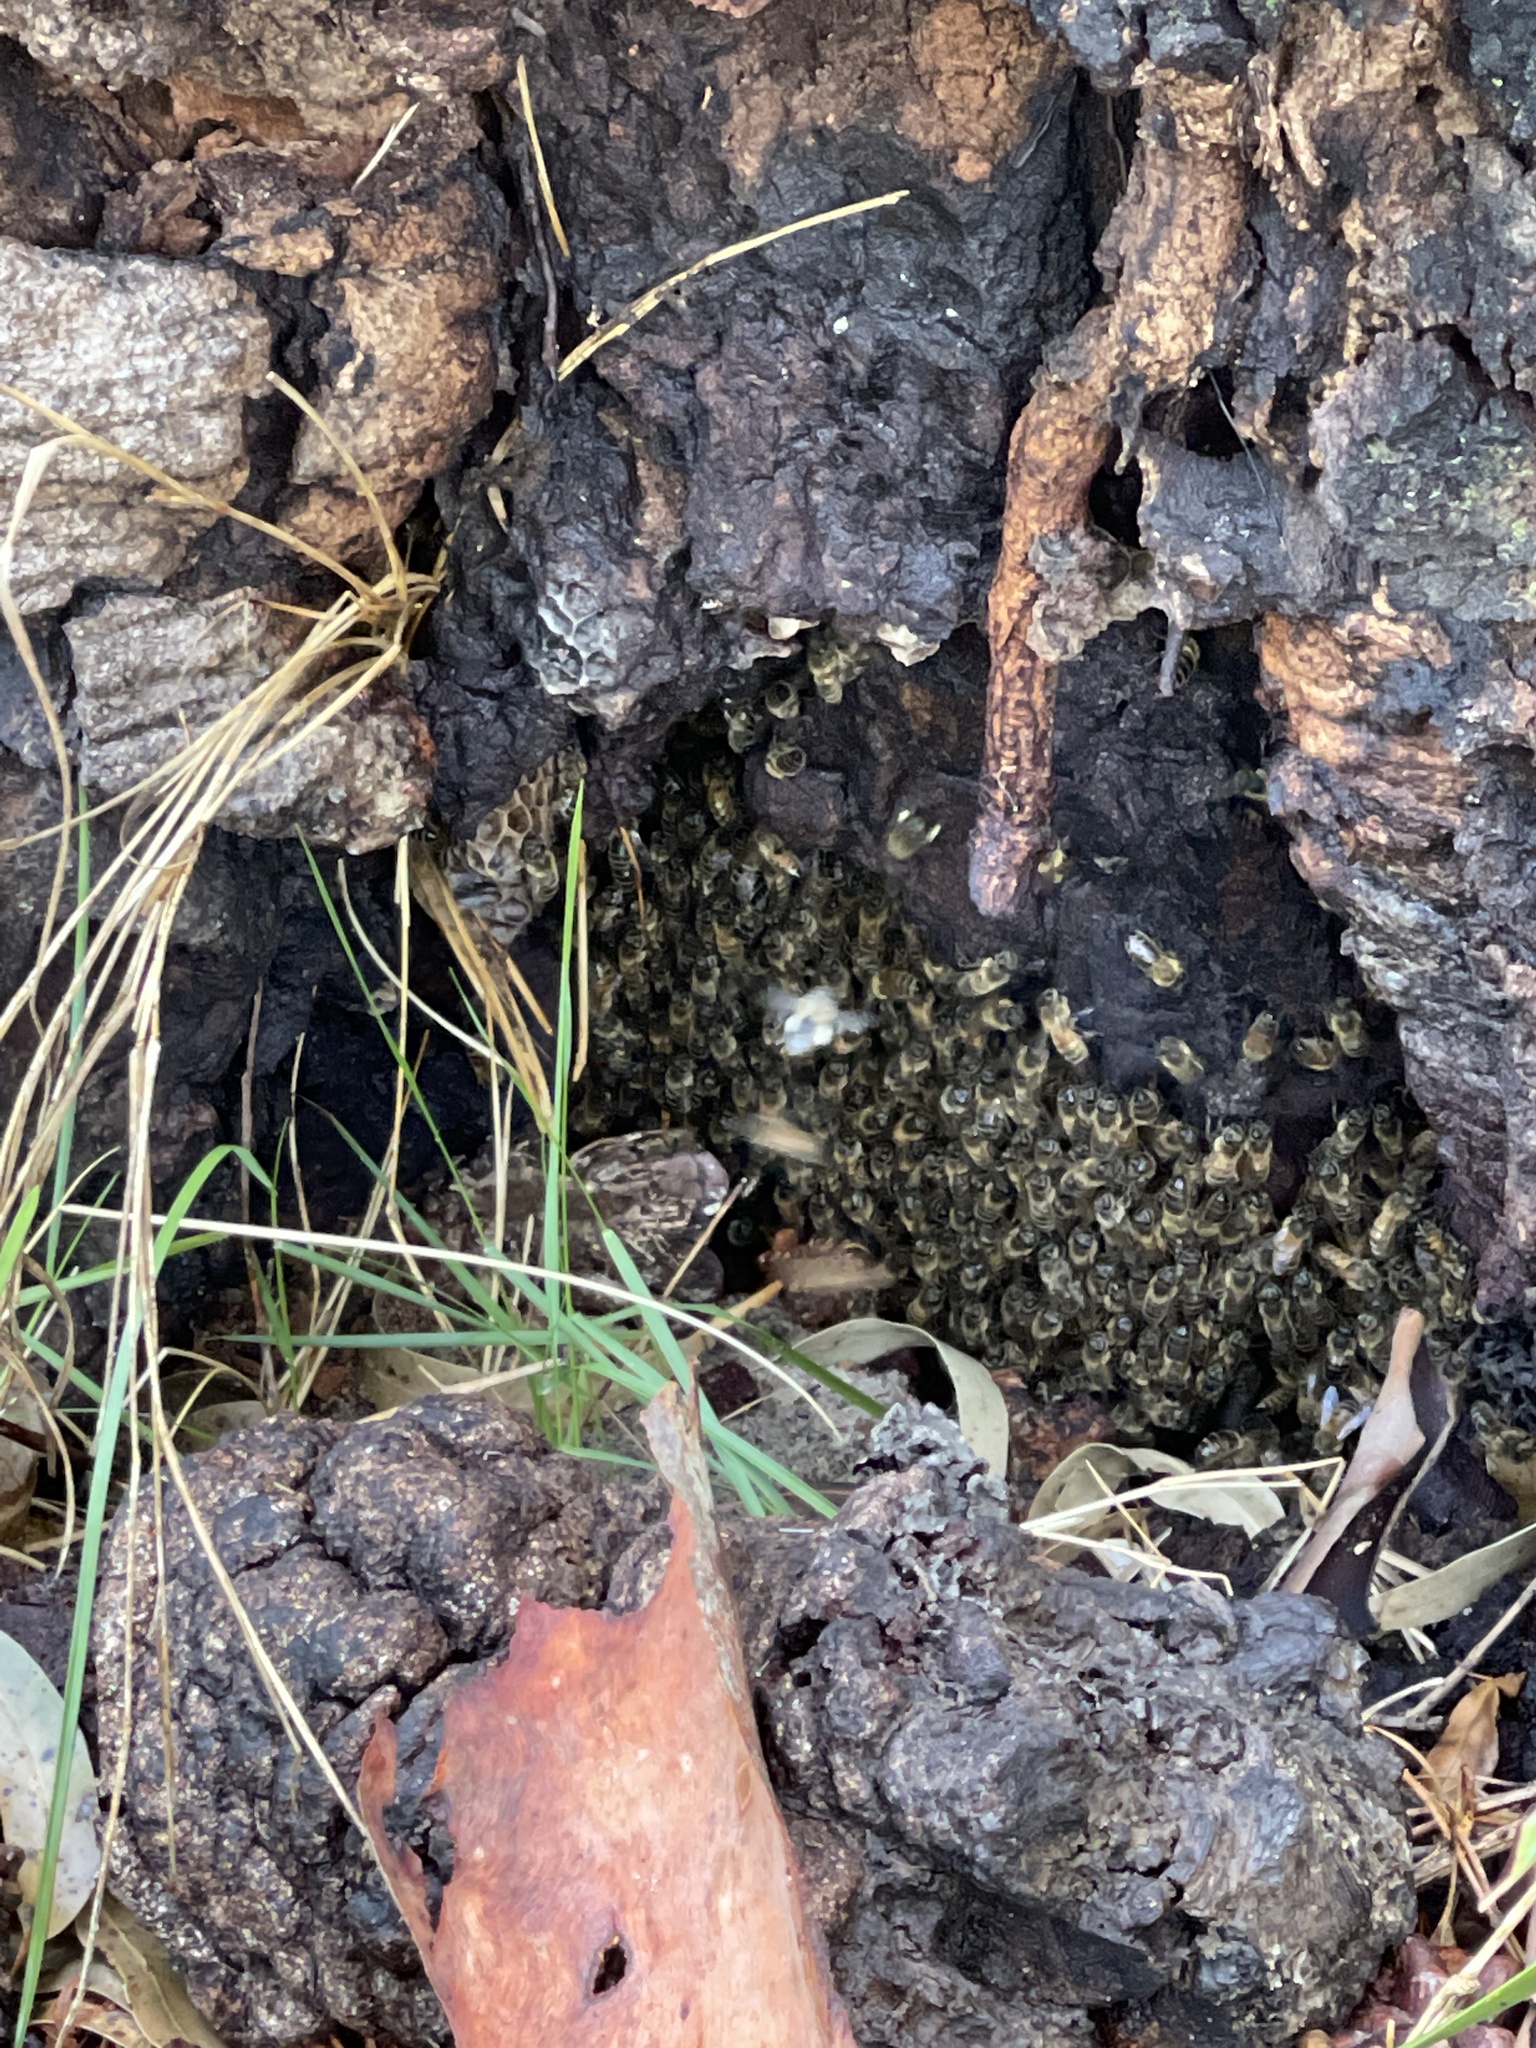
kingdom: Animalia
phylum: Arthropoda
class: Insecta
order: Hymenoptera
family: Apidae
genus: Apis
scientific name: Apis mellifera
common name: Honey bee
